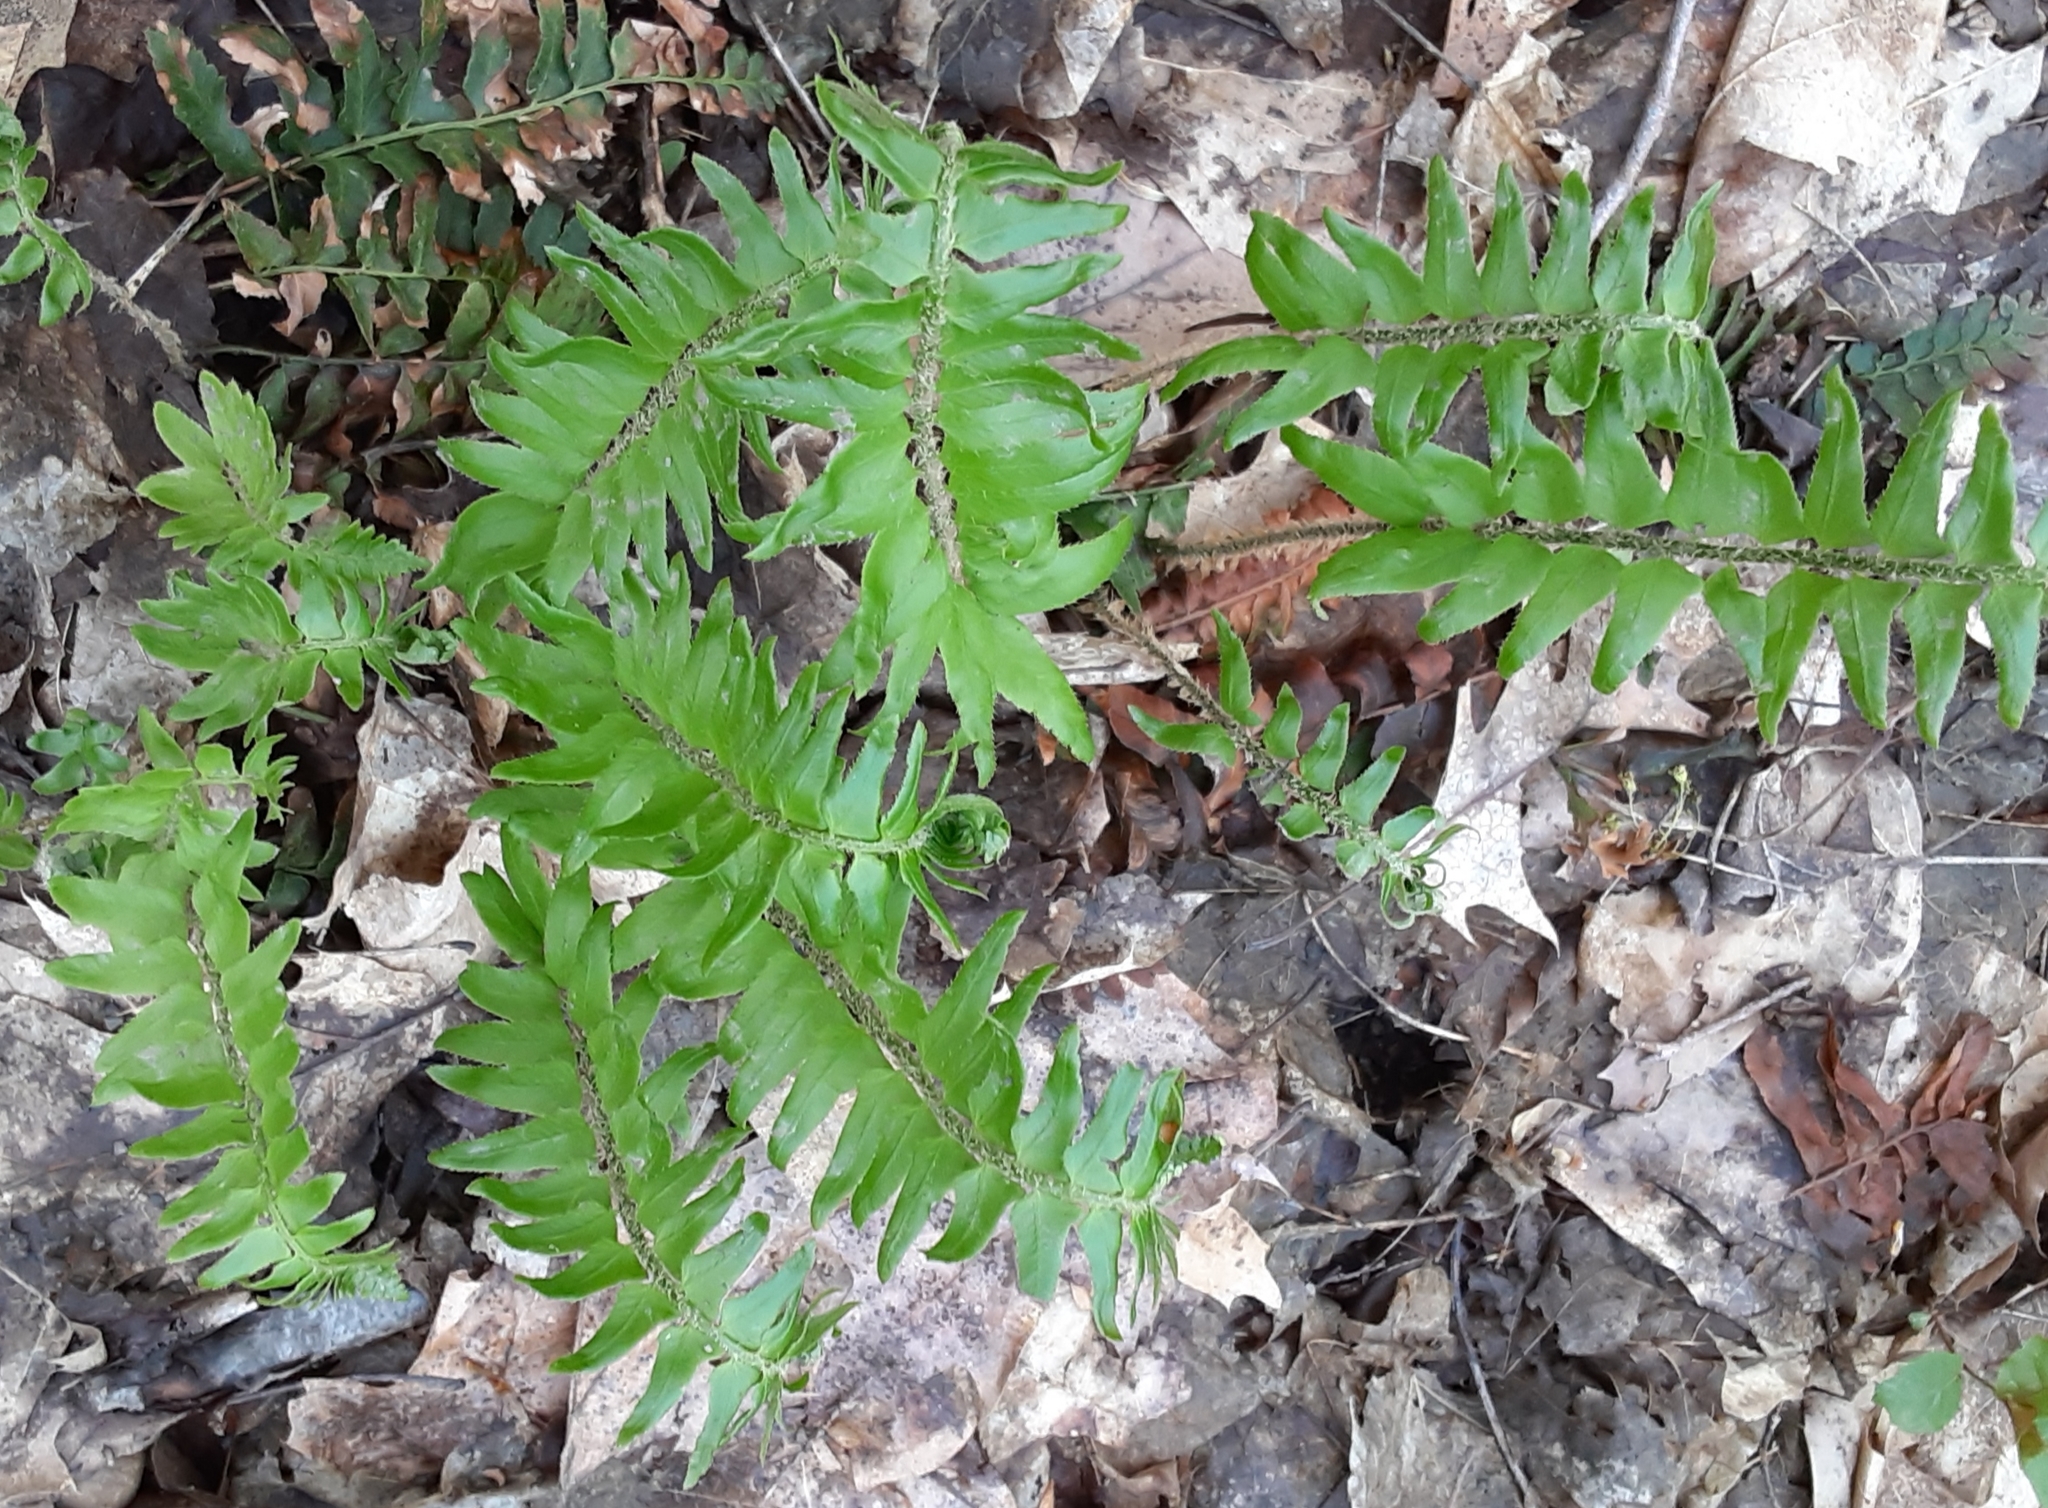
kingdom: Plantae
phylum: Tracheophyta
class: Polypodiopsida
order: Polypodiales
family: Dryopteridaceae
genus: Polystichum
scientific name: Polystichum acrostichoides
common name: Christmas fern
